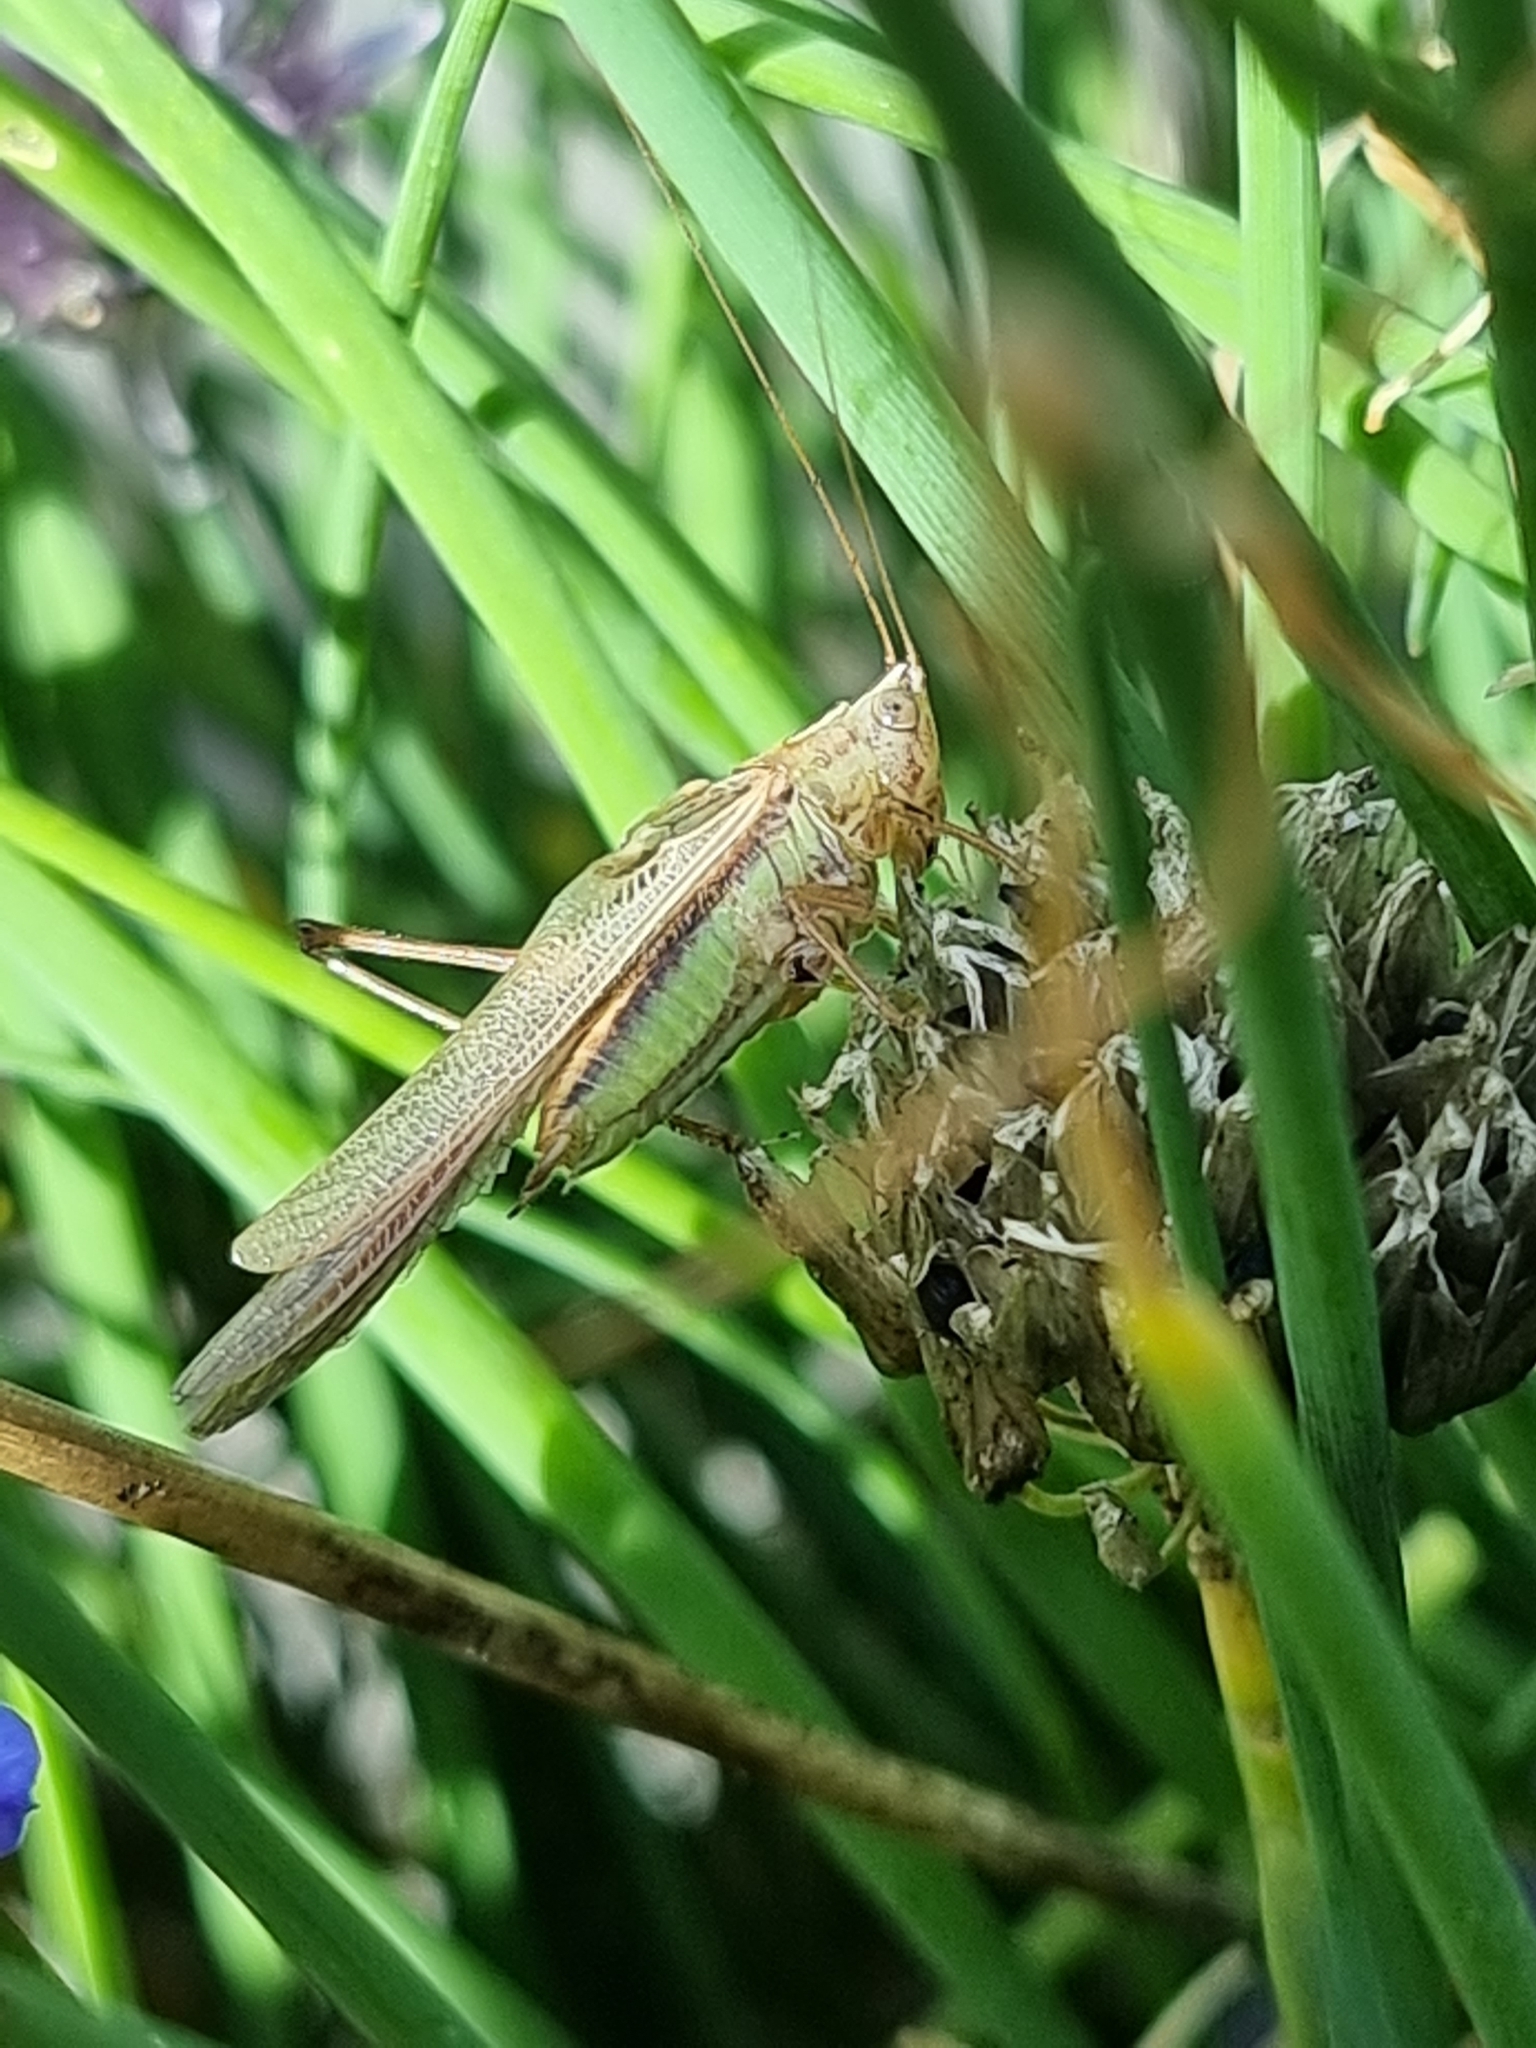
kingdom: Animalia
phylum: Arthropoda
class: Insecta
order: Orthoptera
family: Tettigoniidae
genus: Conocephalus
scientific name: Conocephalus albescens
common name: Whitish meadow katydid
